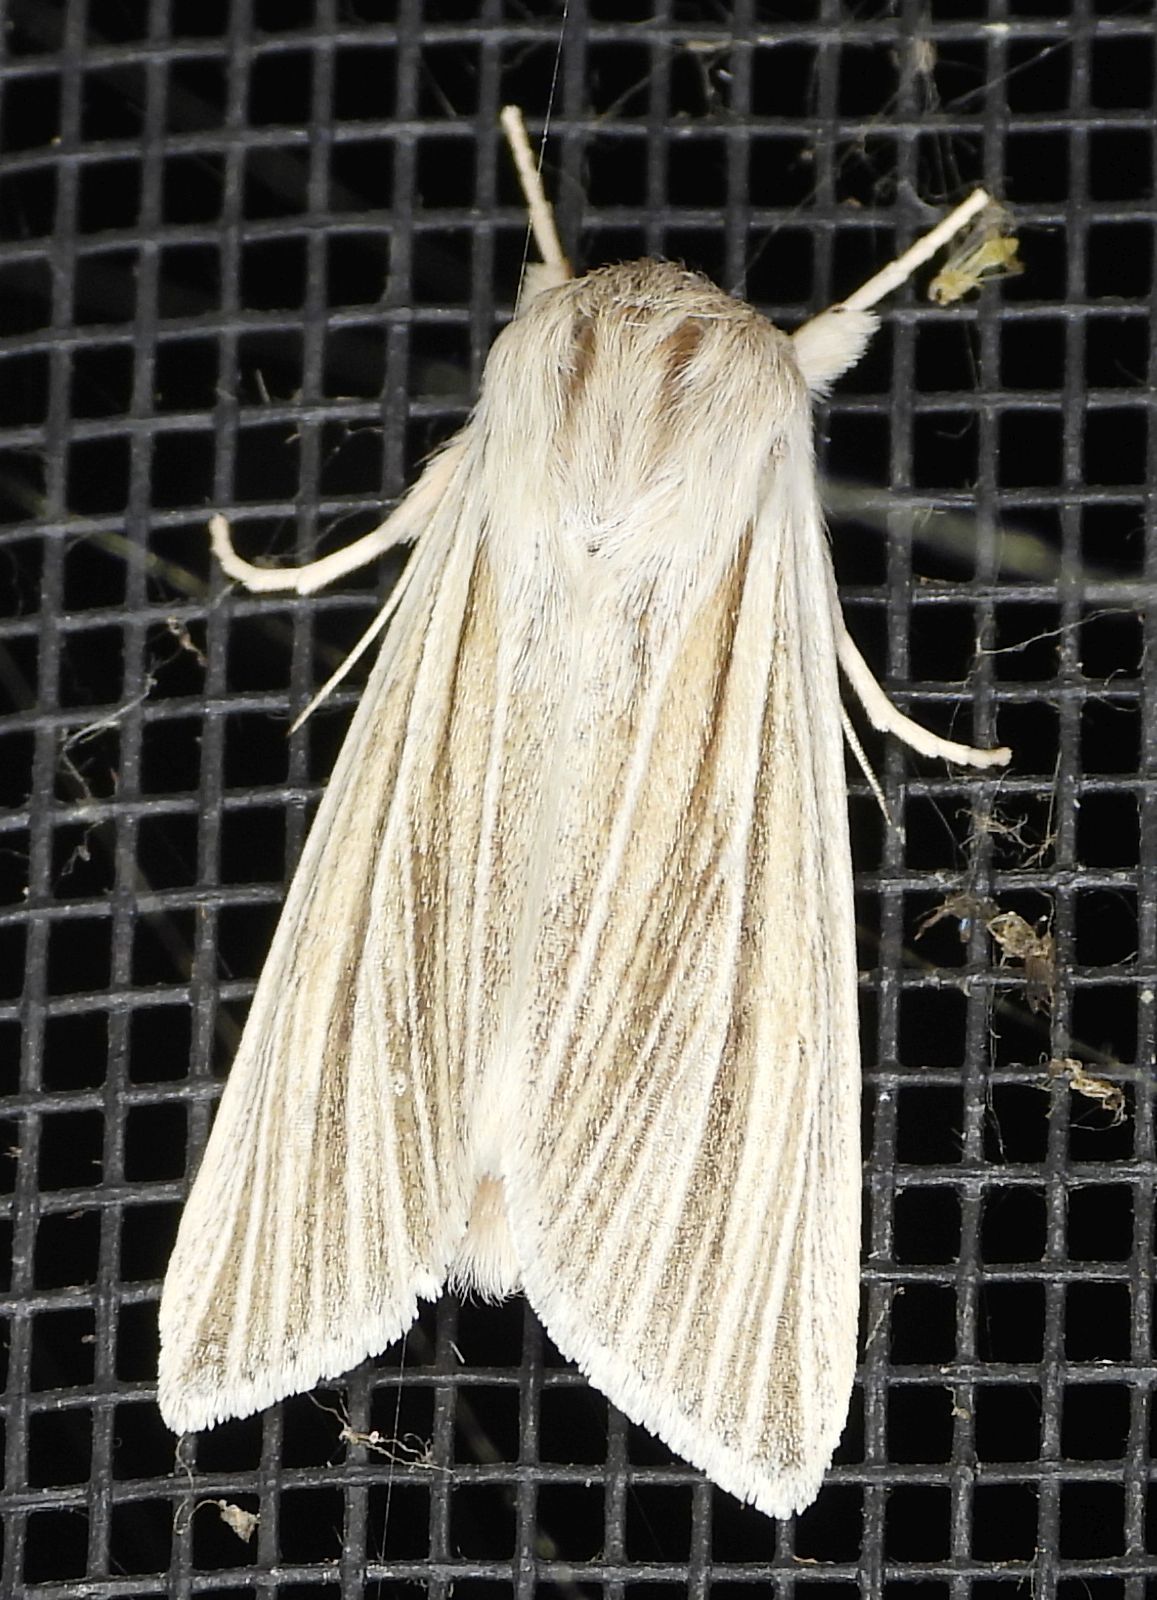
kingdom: Animalia
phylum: Arthropoda
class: Insecta
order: Lepidoptera
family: Noctuidae
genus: Acronicta
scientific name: Acronicta insularis
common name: Henry's marsh moth
